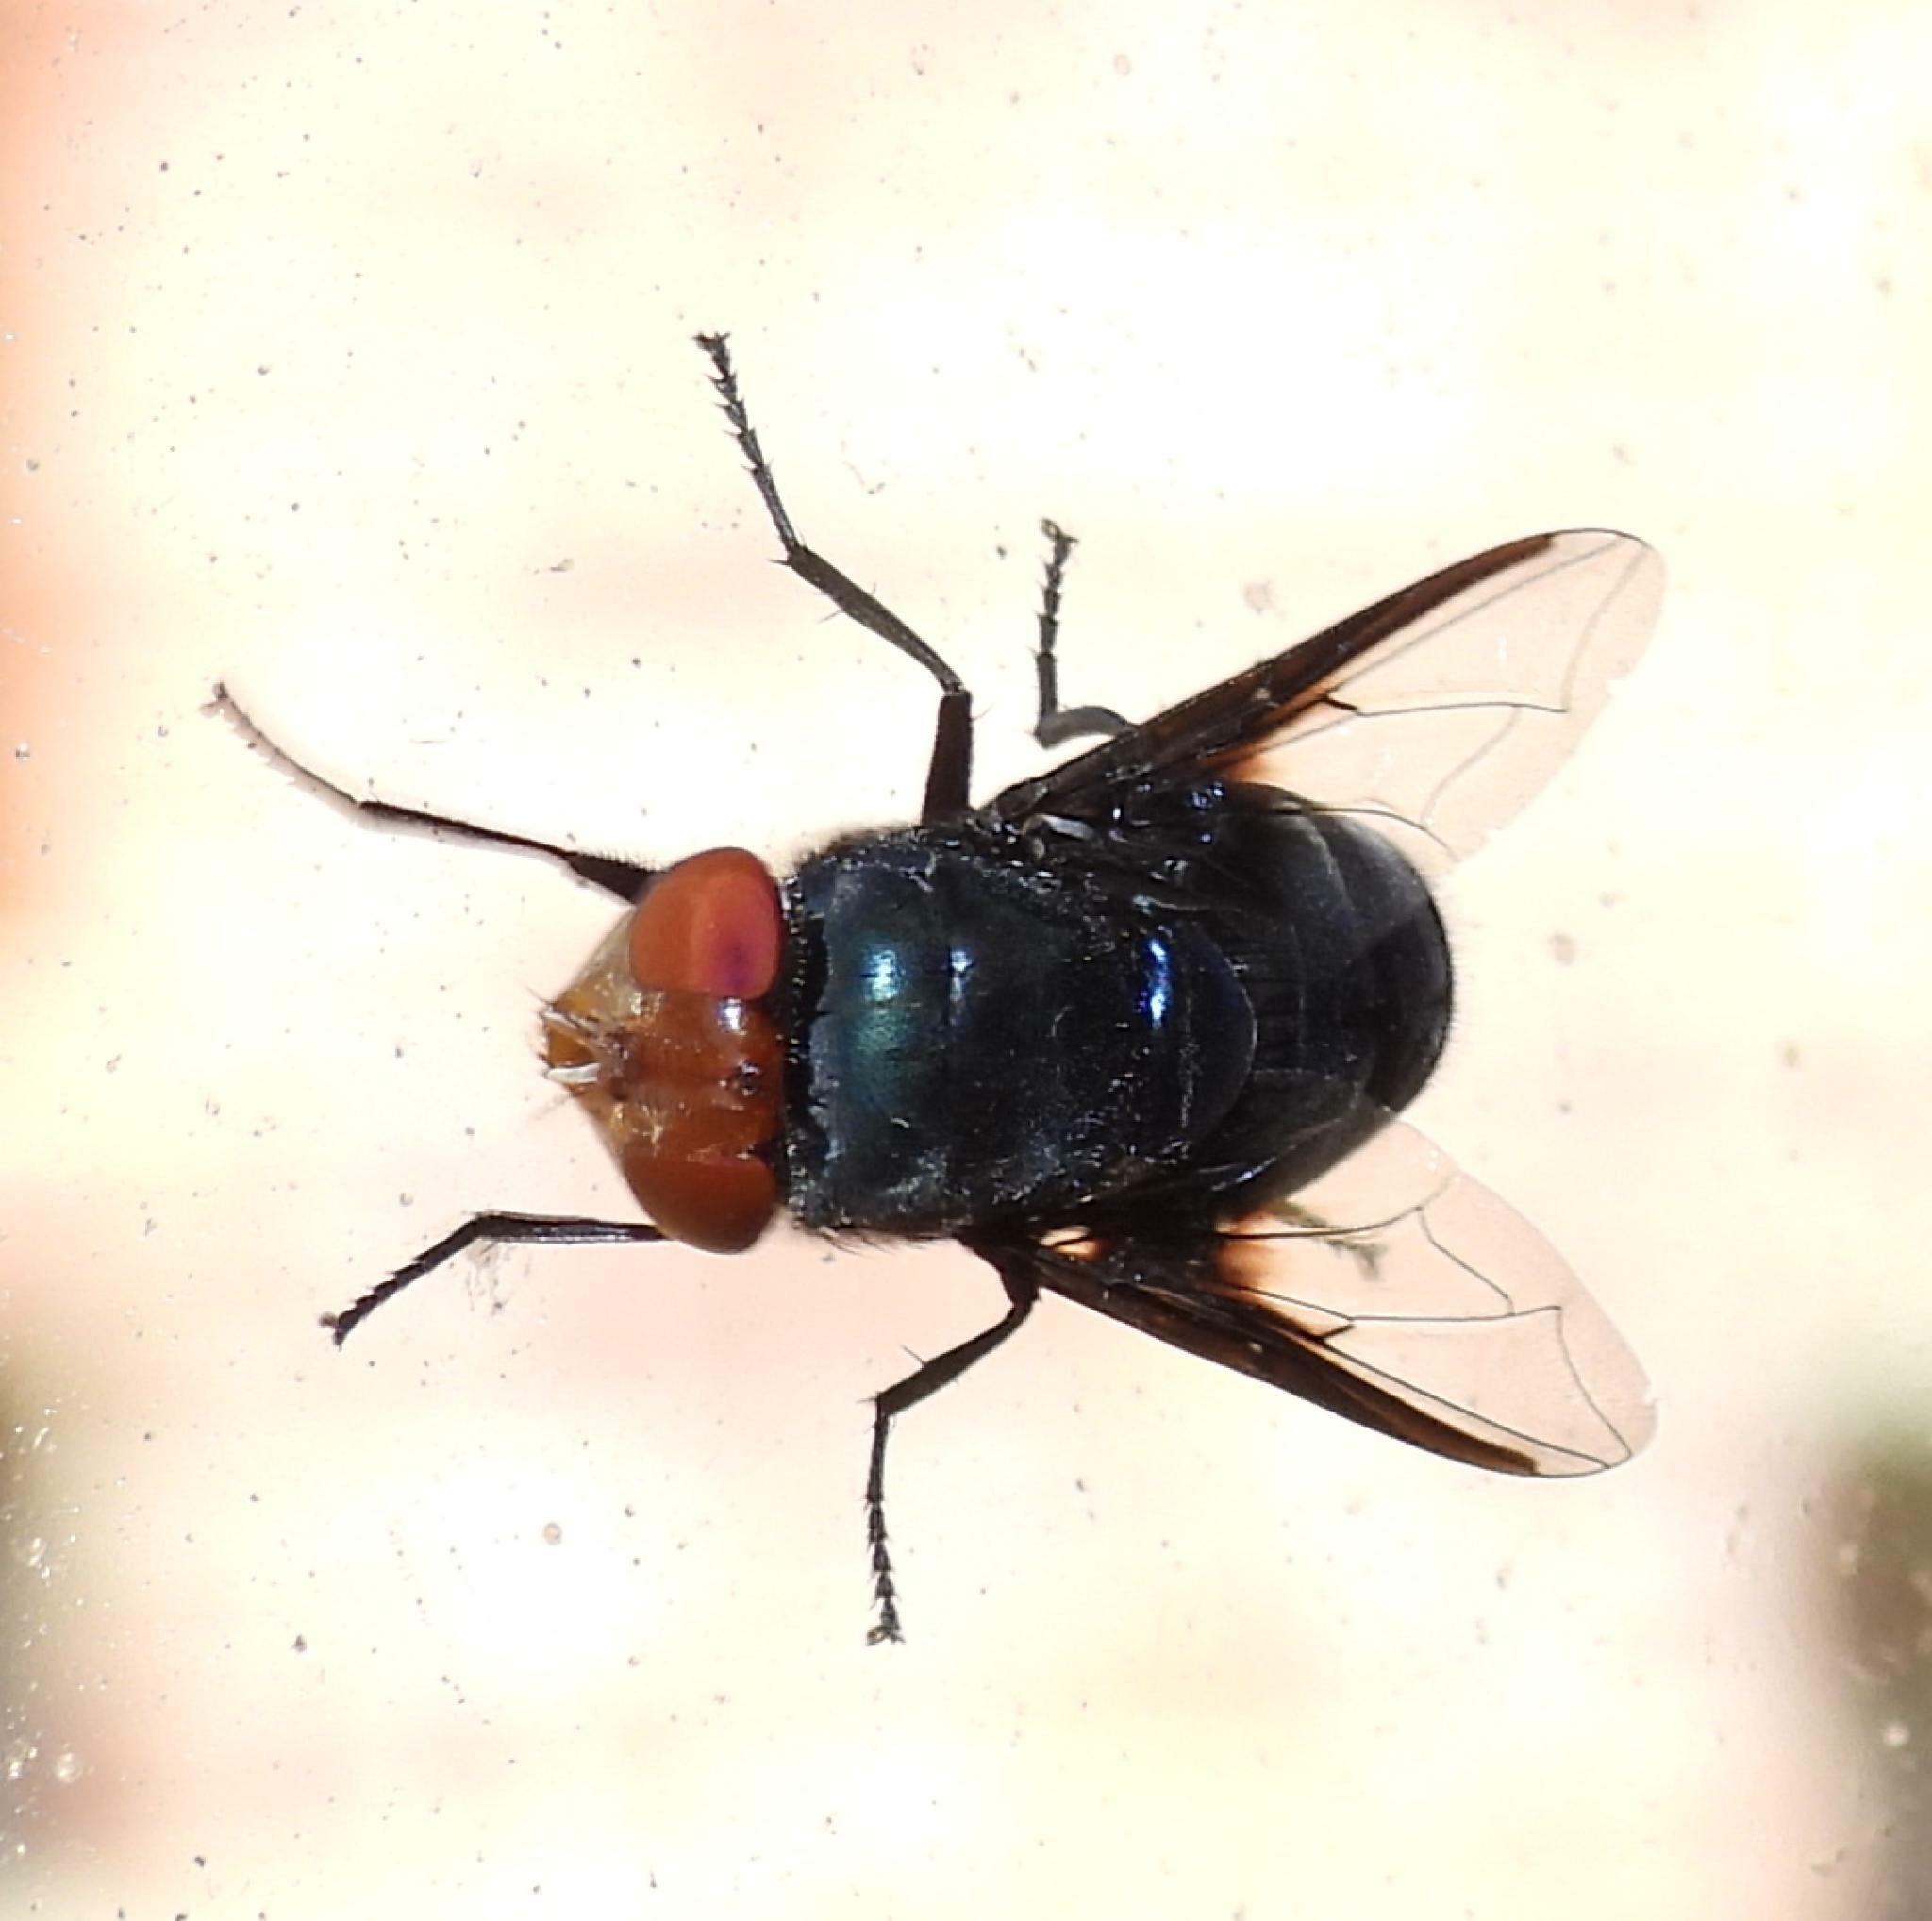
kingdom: Animalia
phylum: Arthropoda
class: Insecta
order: Diptera
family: Calliphoridae
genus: Chrysomya
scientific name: Chrysomya marginalis
